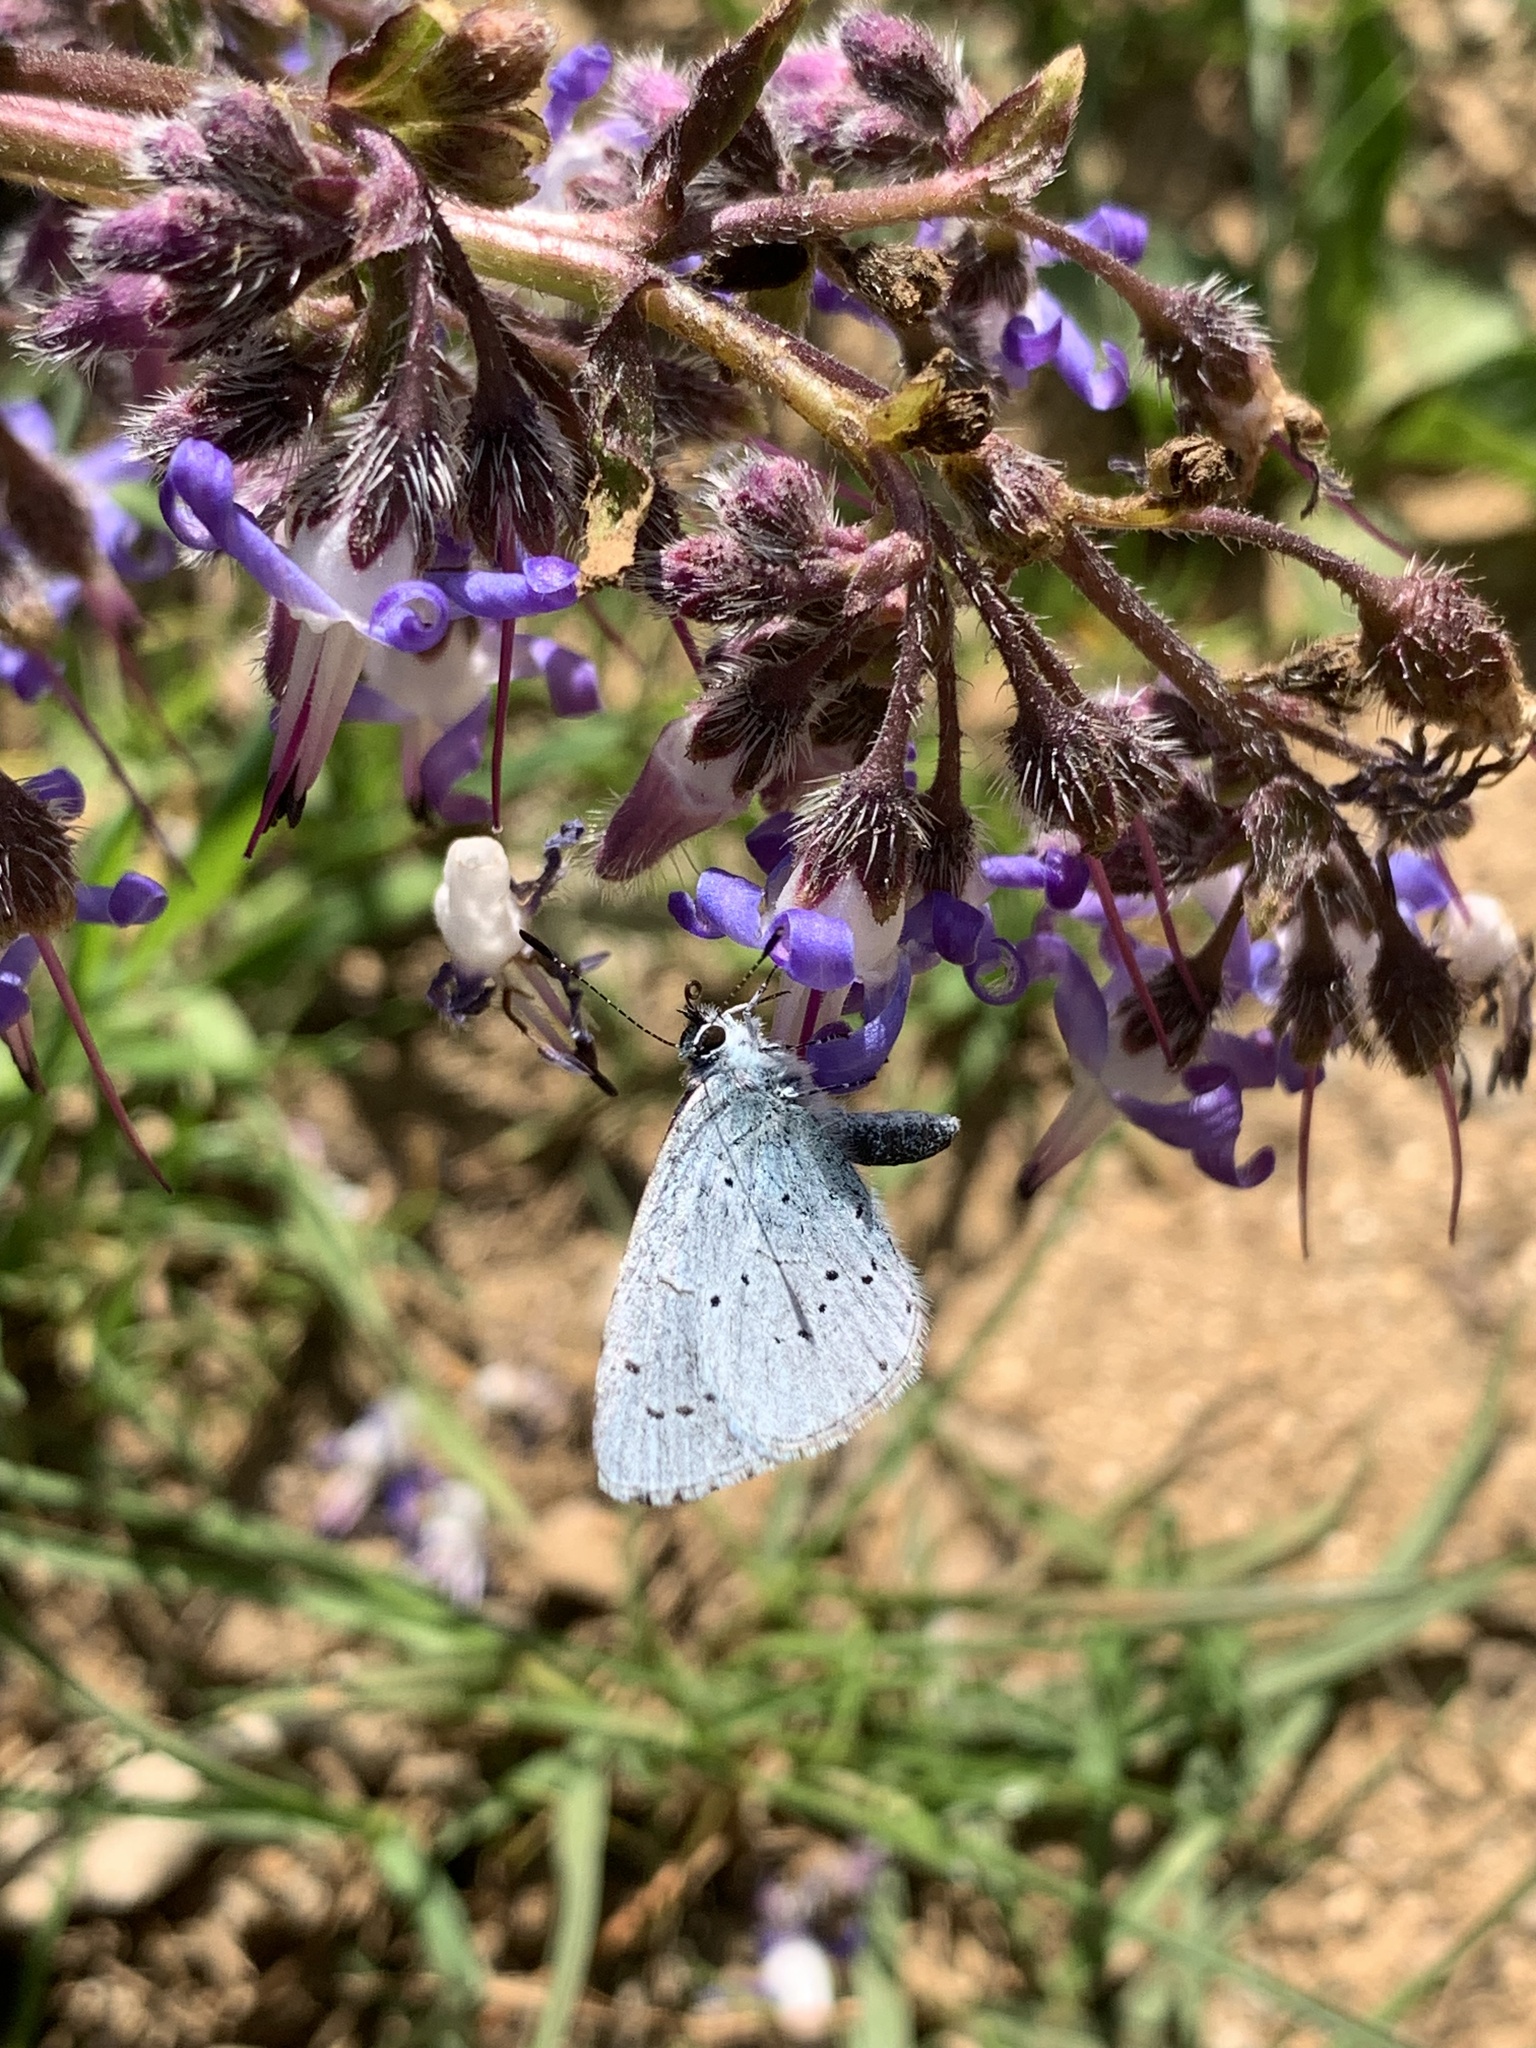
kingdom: Animalia
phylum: Arthropoda
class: Insecta
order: Lepidoptera
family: Lycaenidae
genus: Celastrina
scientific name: Celastrina argiolus
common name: Holly blue
